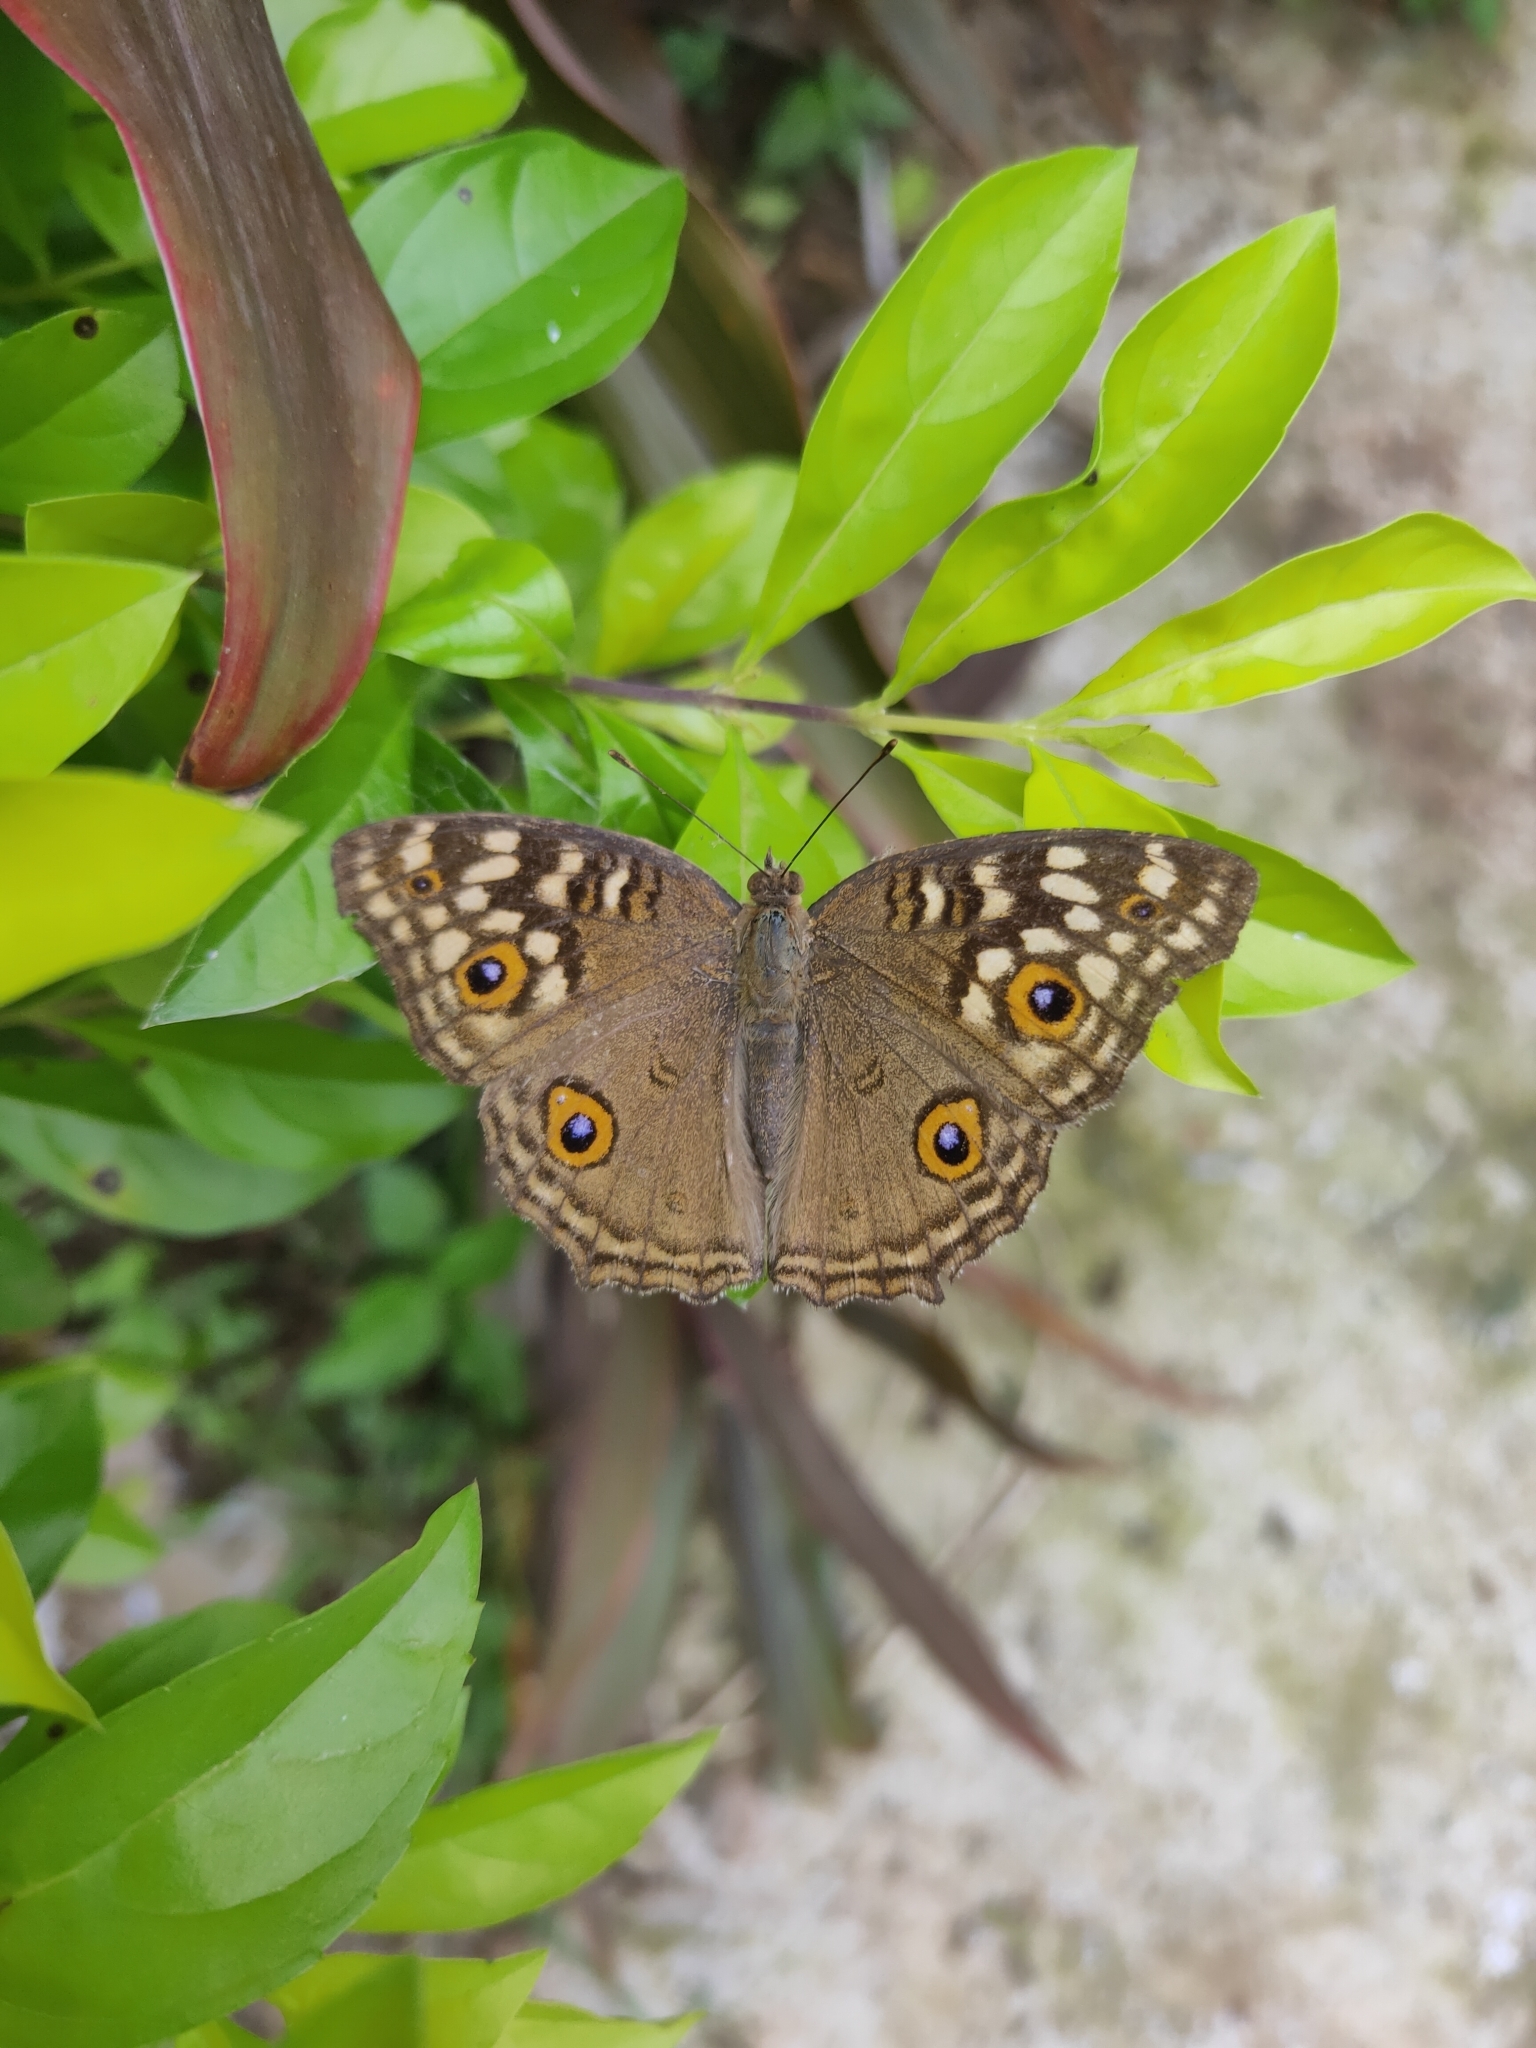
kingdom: Animalia
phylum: Arthropoda
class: Insecta
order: Lepidoptera
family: Nymphalidae
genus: Junonia
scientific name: Junonia lemonias
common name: Lemon pansy
